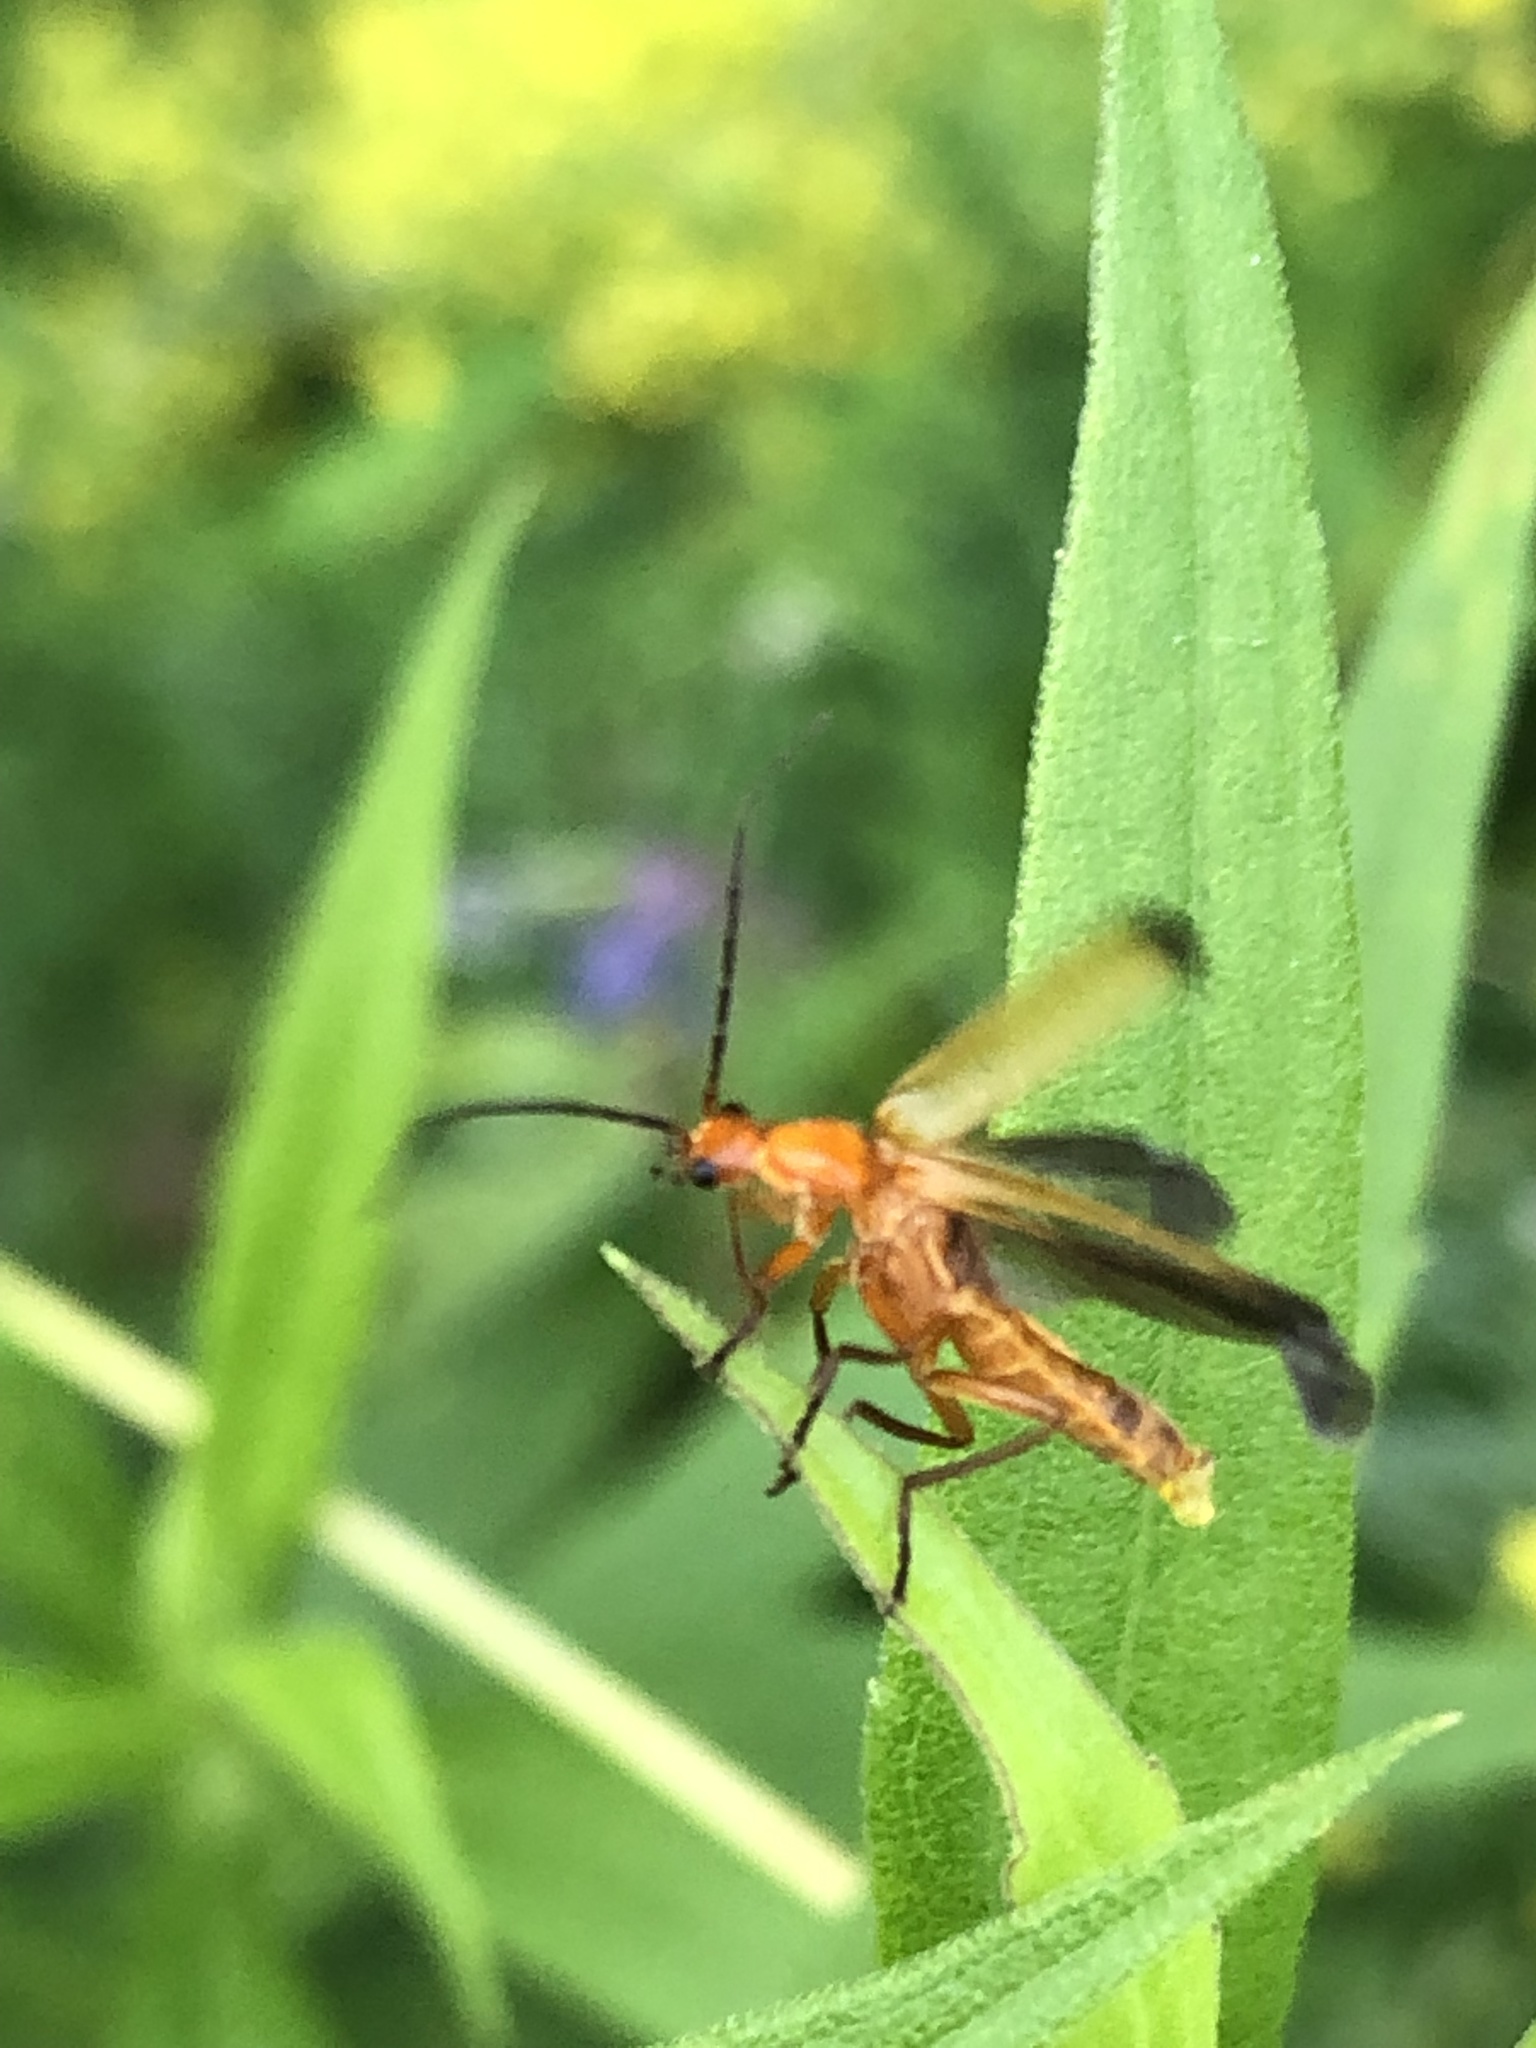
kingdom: Animalia
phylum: Arthropoda
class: Insecta
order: Coleoptera
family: Cantharidae
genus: Rhagonycha
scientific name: Rhagonycha fulva
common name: Common red soldier beetle
